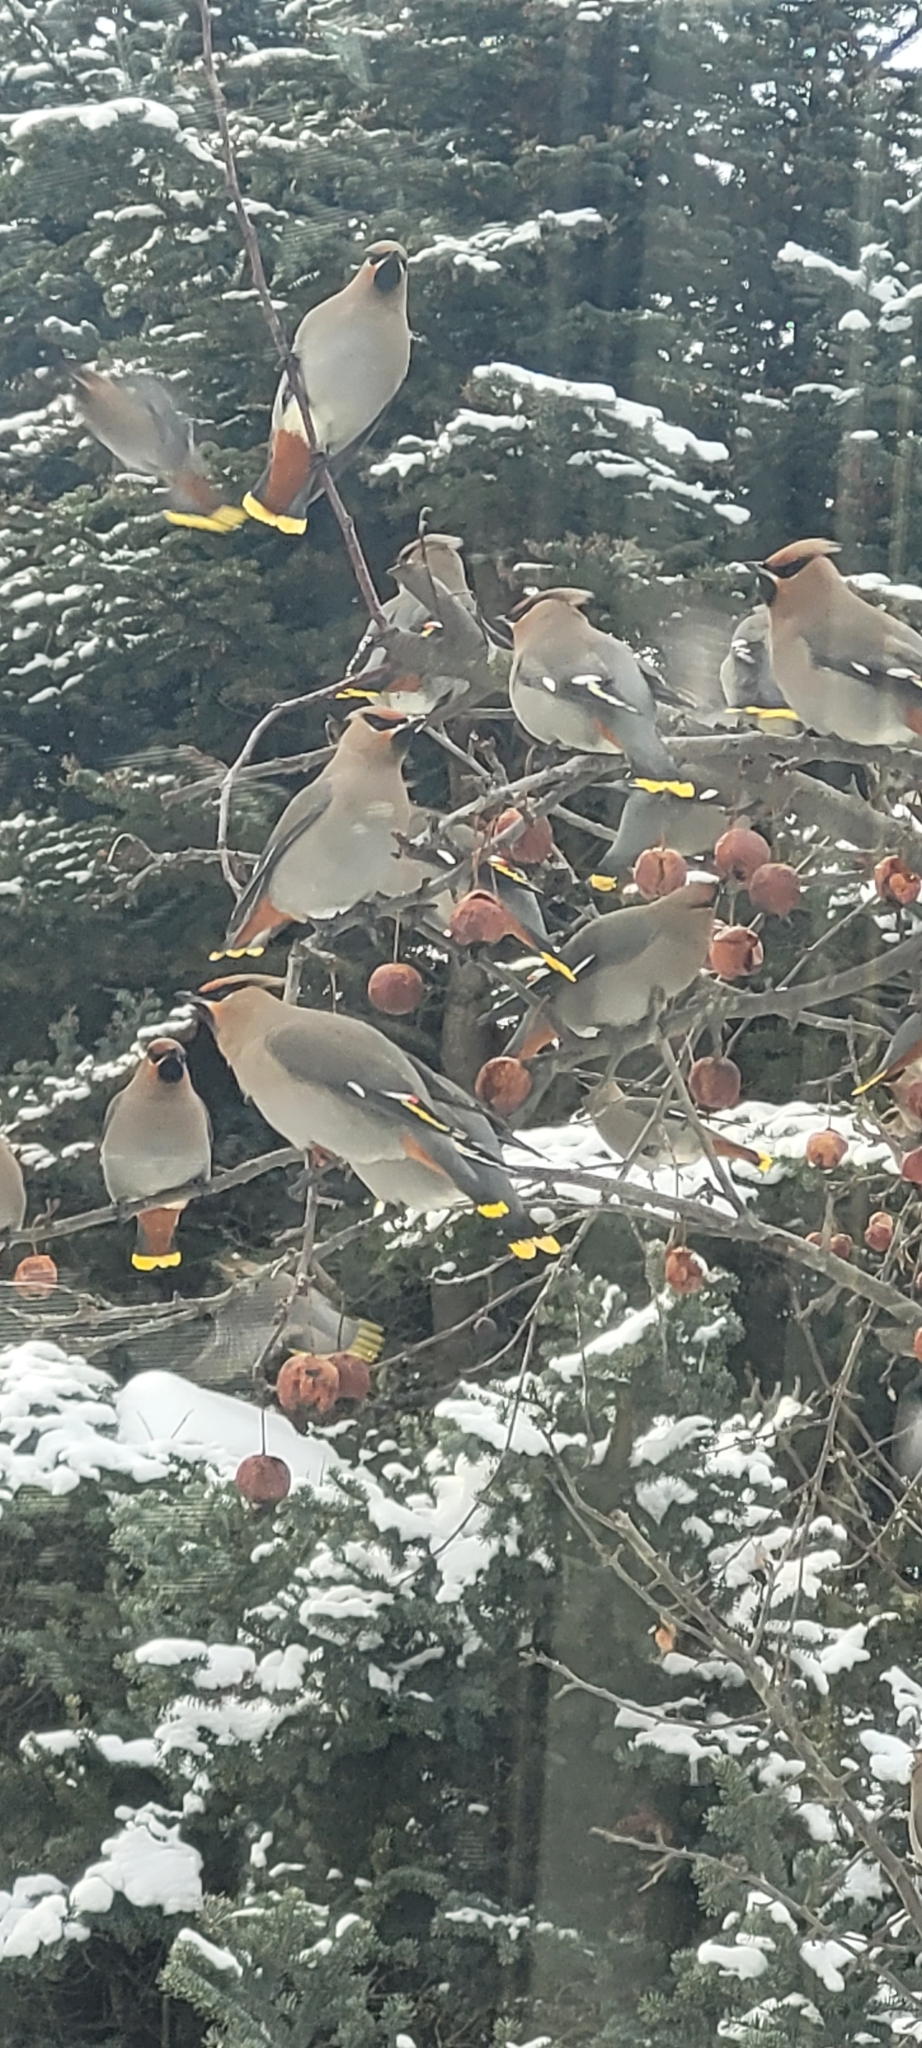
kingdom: Animalia
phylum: Chordata
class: Aves
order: Passeriformes
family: Bombycillidae
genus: Bombycilla
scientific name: Bombycilla garrulus
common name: Bohemian waxwing
